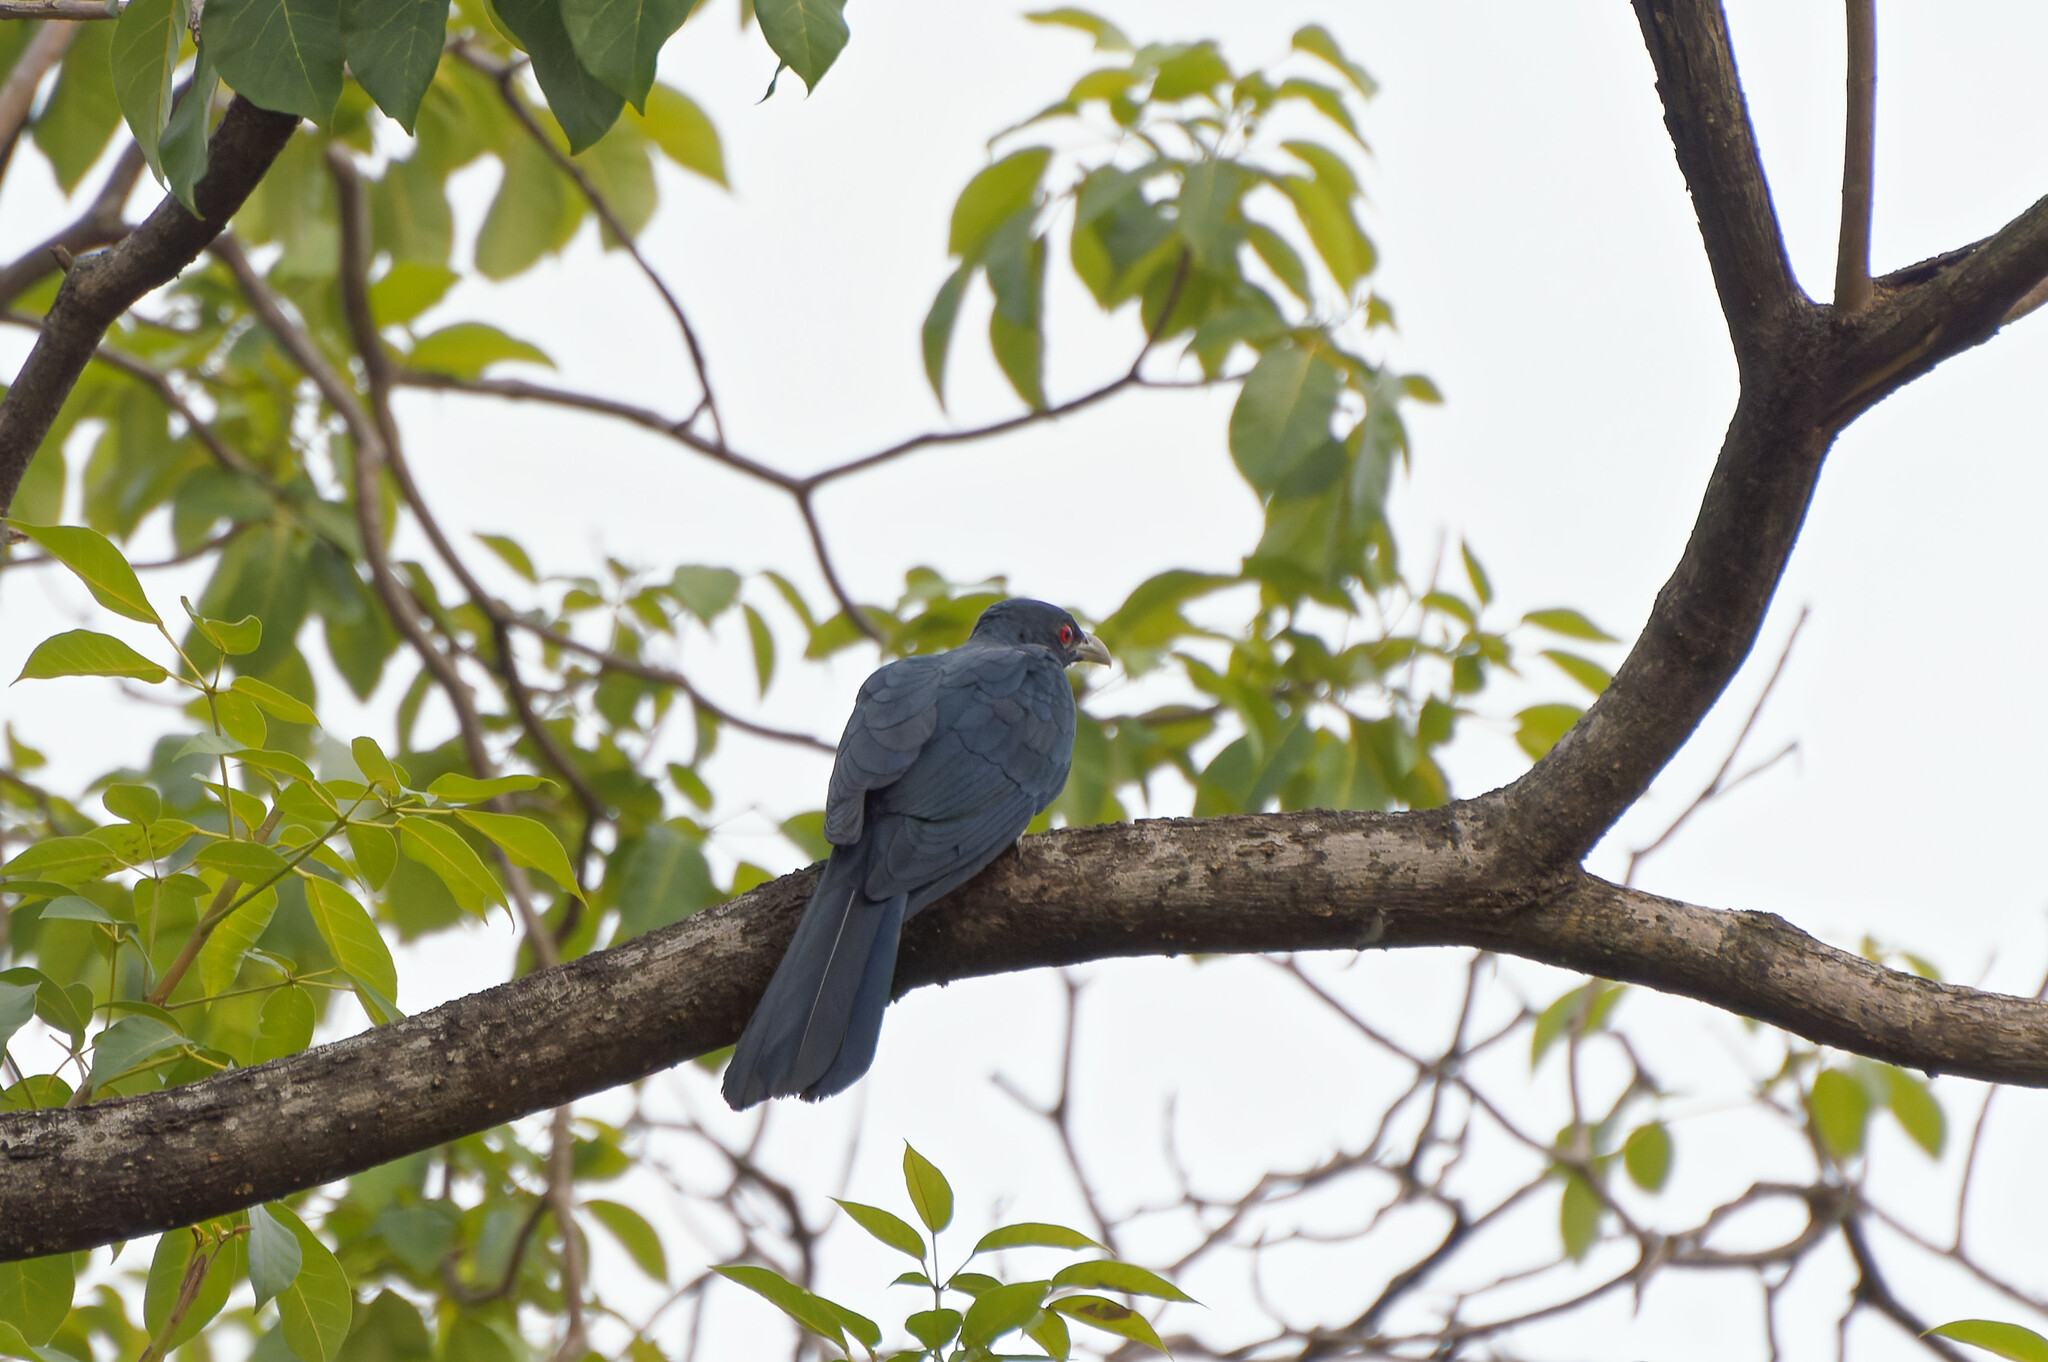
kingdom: Animalia
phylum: Chordata
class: Aves
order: Cuculiformes
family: Cuculidae
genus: Eudynamys
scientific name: Eudynamys scolopaceus
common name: Asian koel
